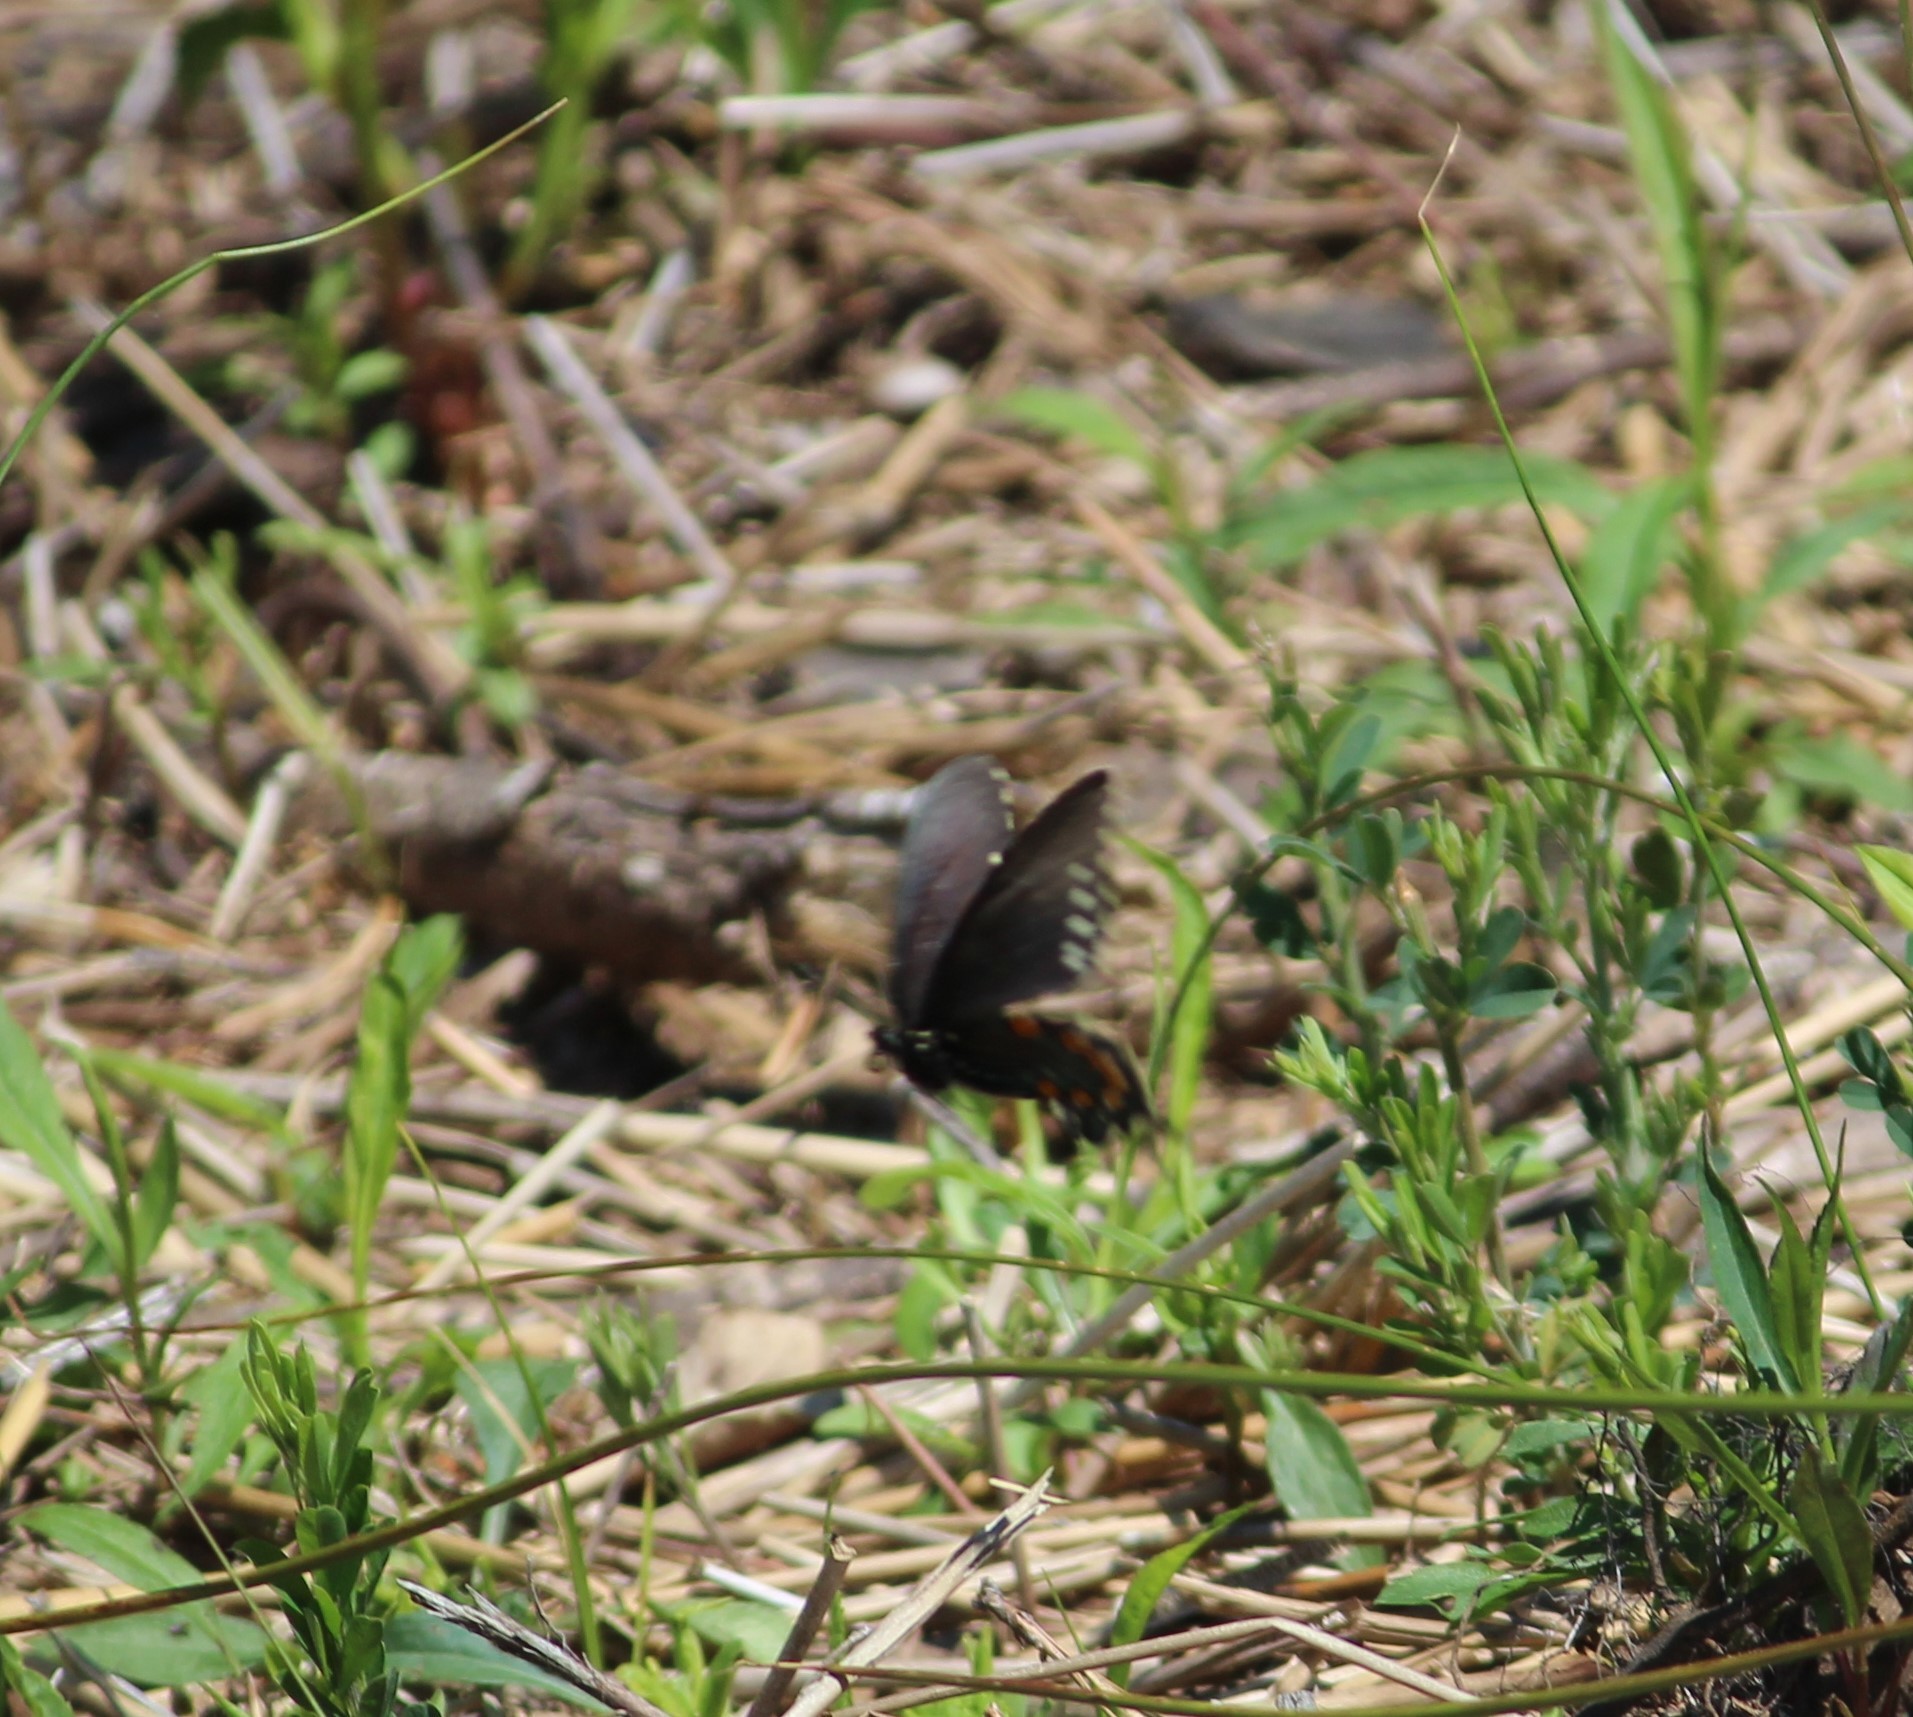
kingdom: Animalia
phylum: Arthropoda
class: Insecta
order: Lepidoptera
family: Papilionidae
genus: Battus
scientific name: Battus philenor
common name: Pipevine swallowtail
